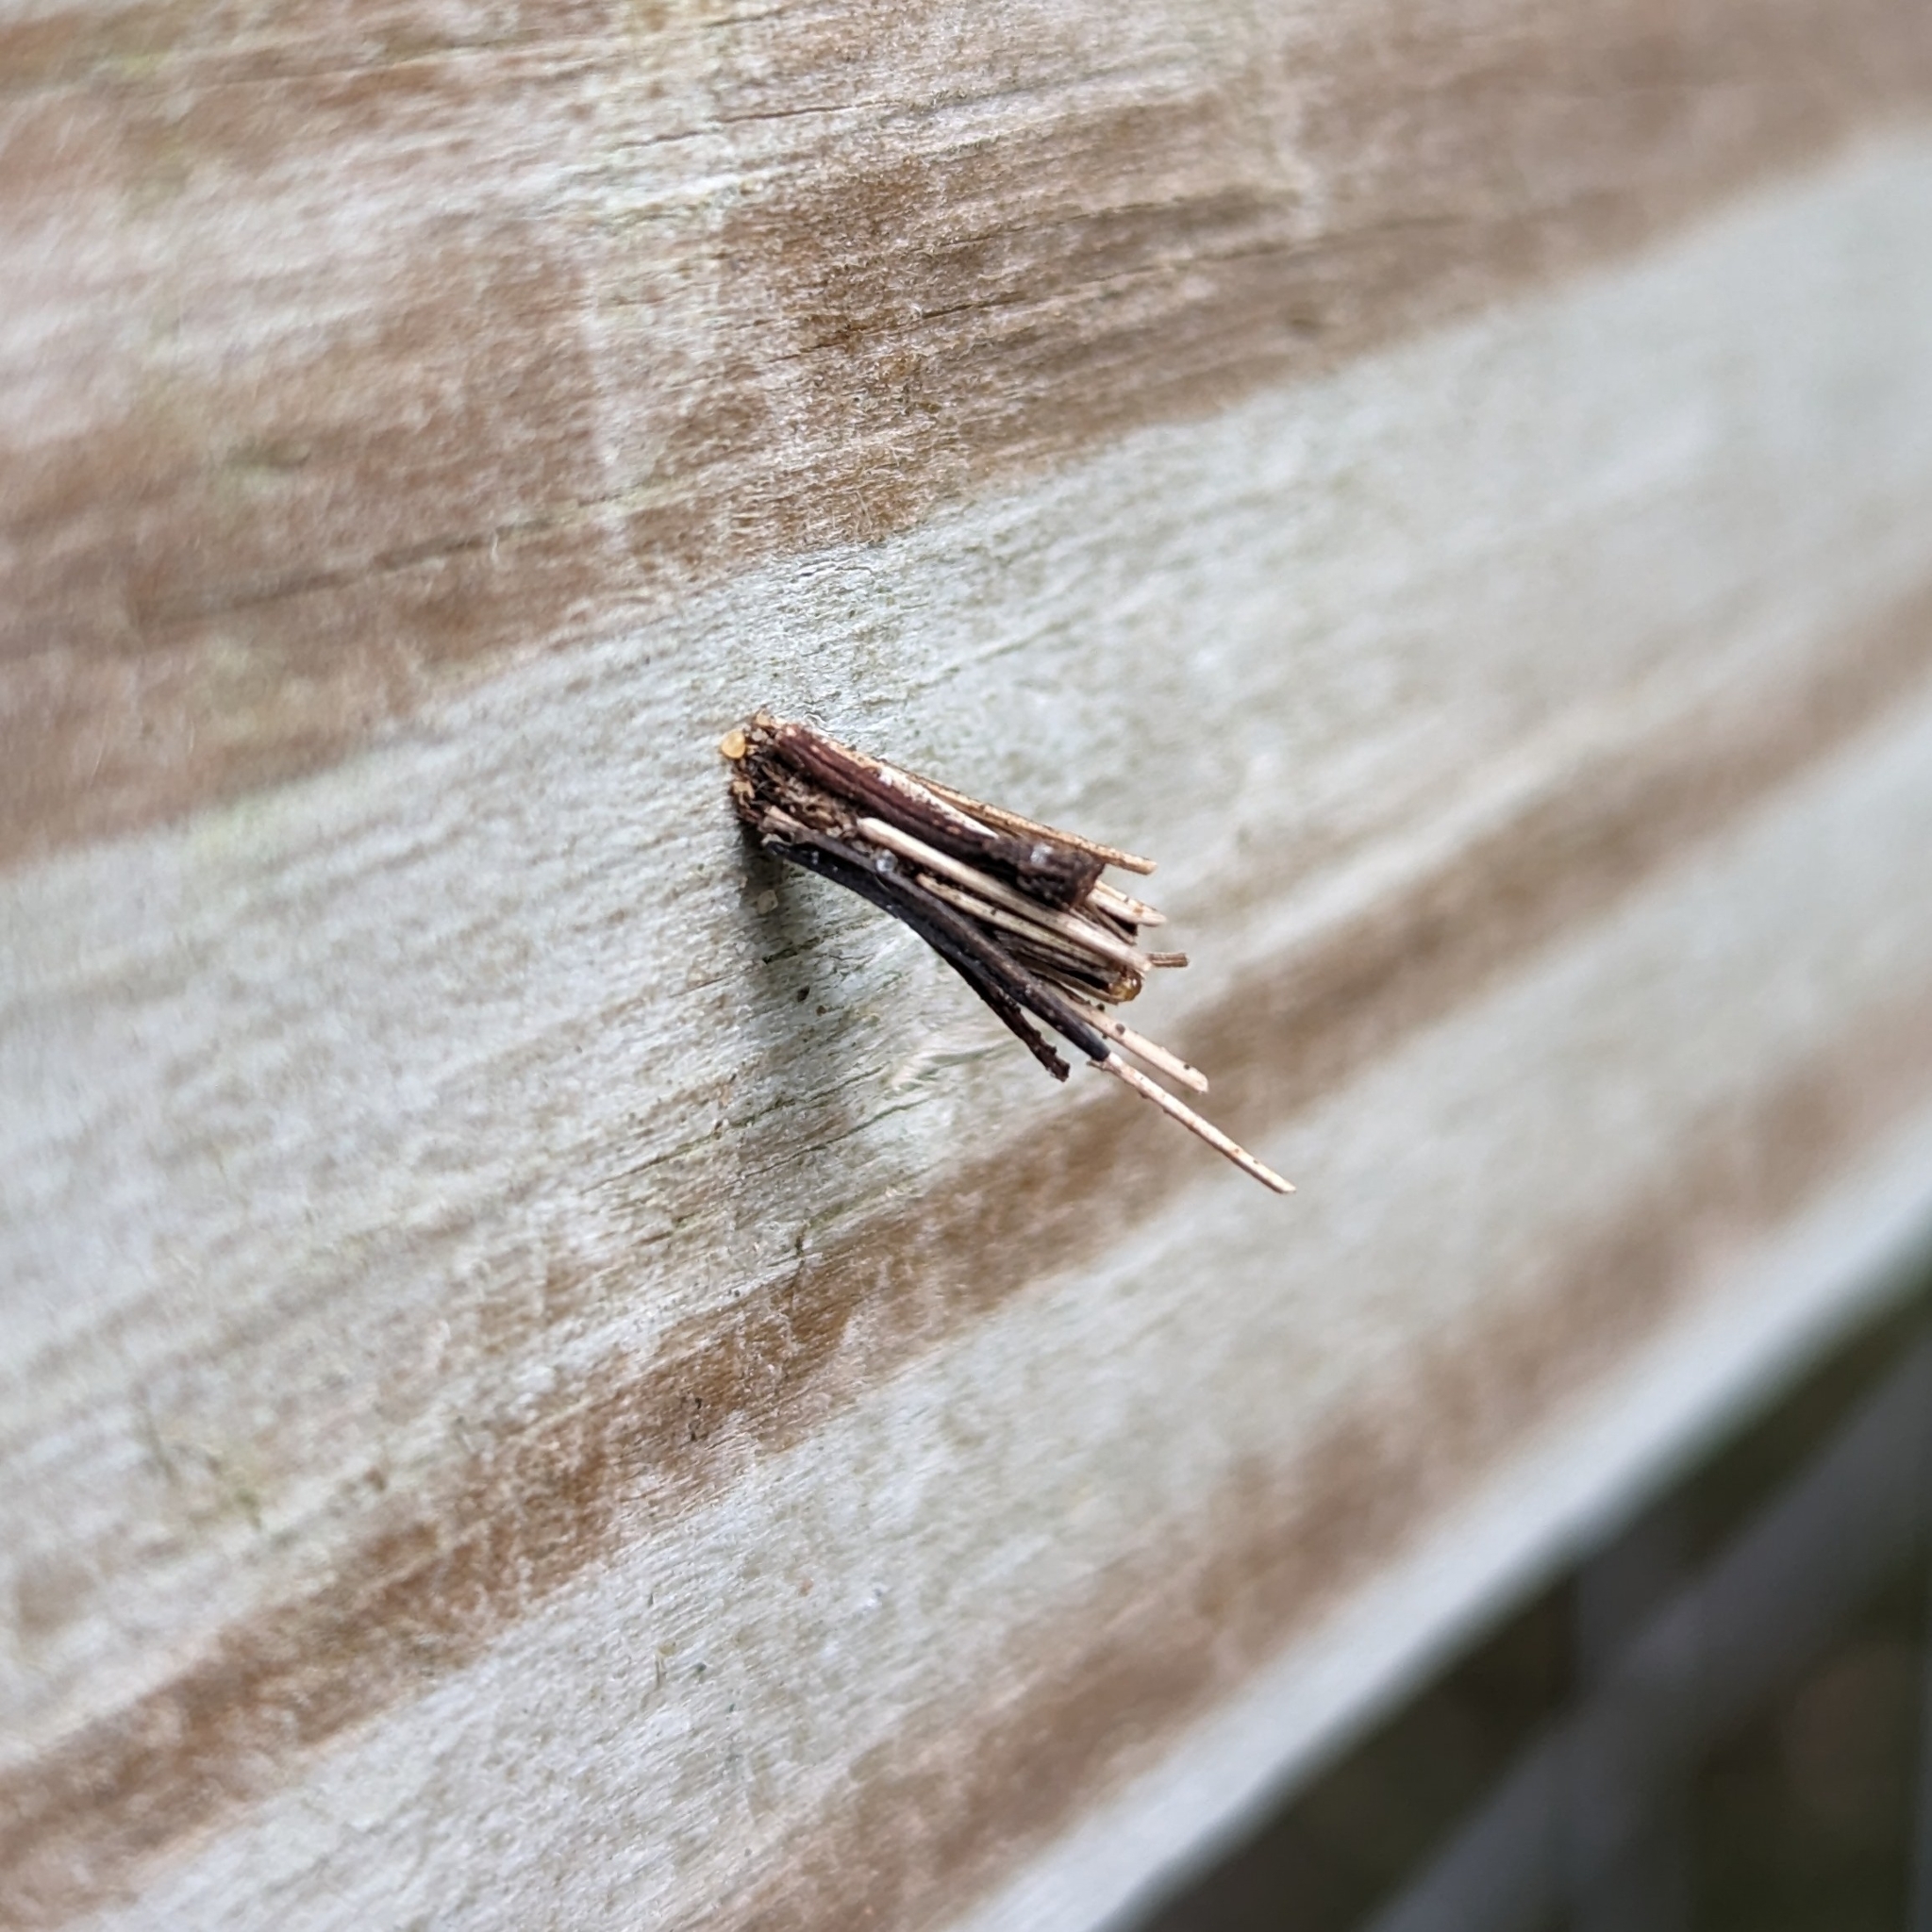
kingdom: Animalia
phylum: Arthropoda
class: Insecta
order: Lepidoptera
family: Psychidae
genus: Psyche
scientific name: Psyche casta
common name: Common sweep
